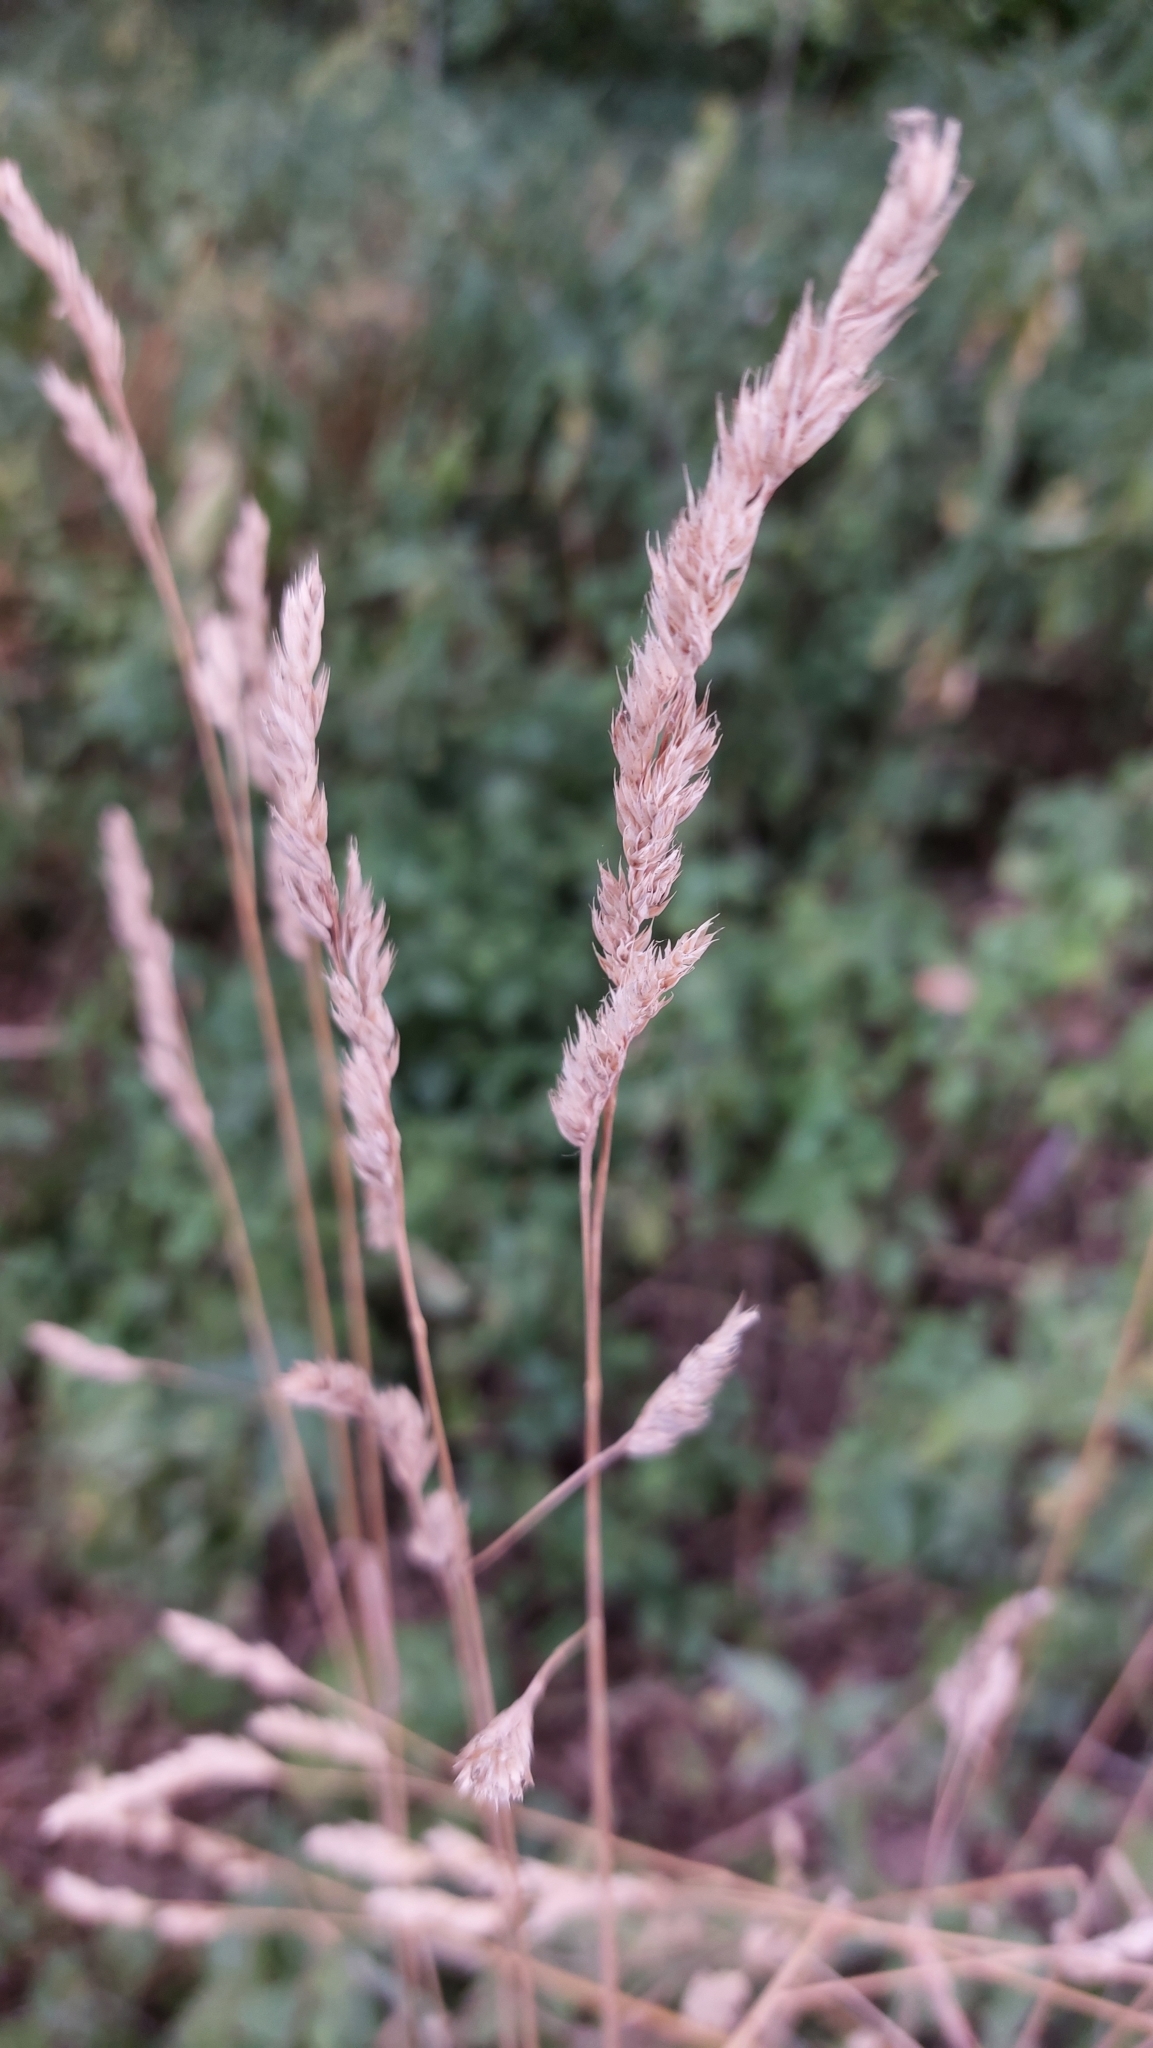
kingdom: Plantae
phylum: Tracheophyta
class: Liliopsida
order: Poales
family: Poaceae
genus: Dactylis
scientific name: Dactylis glomerata
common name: Orchardgrass
